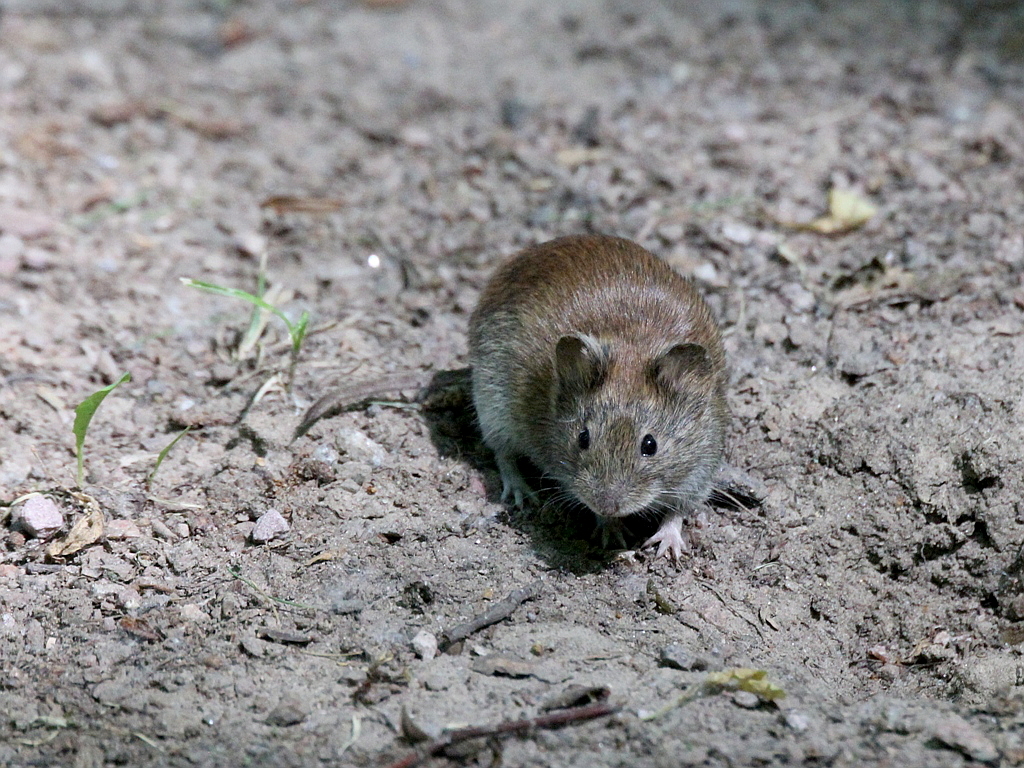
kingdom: Animalia
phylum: Chordata
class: Mammalia
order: Rodentia
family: Cricetidae
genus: Myodes
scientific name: Myodes glareolus
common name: Bank vole
